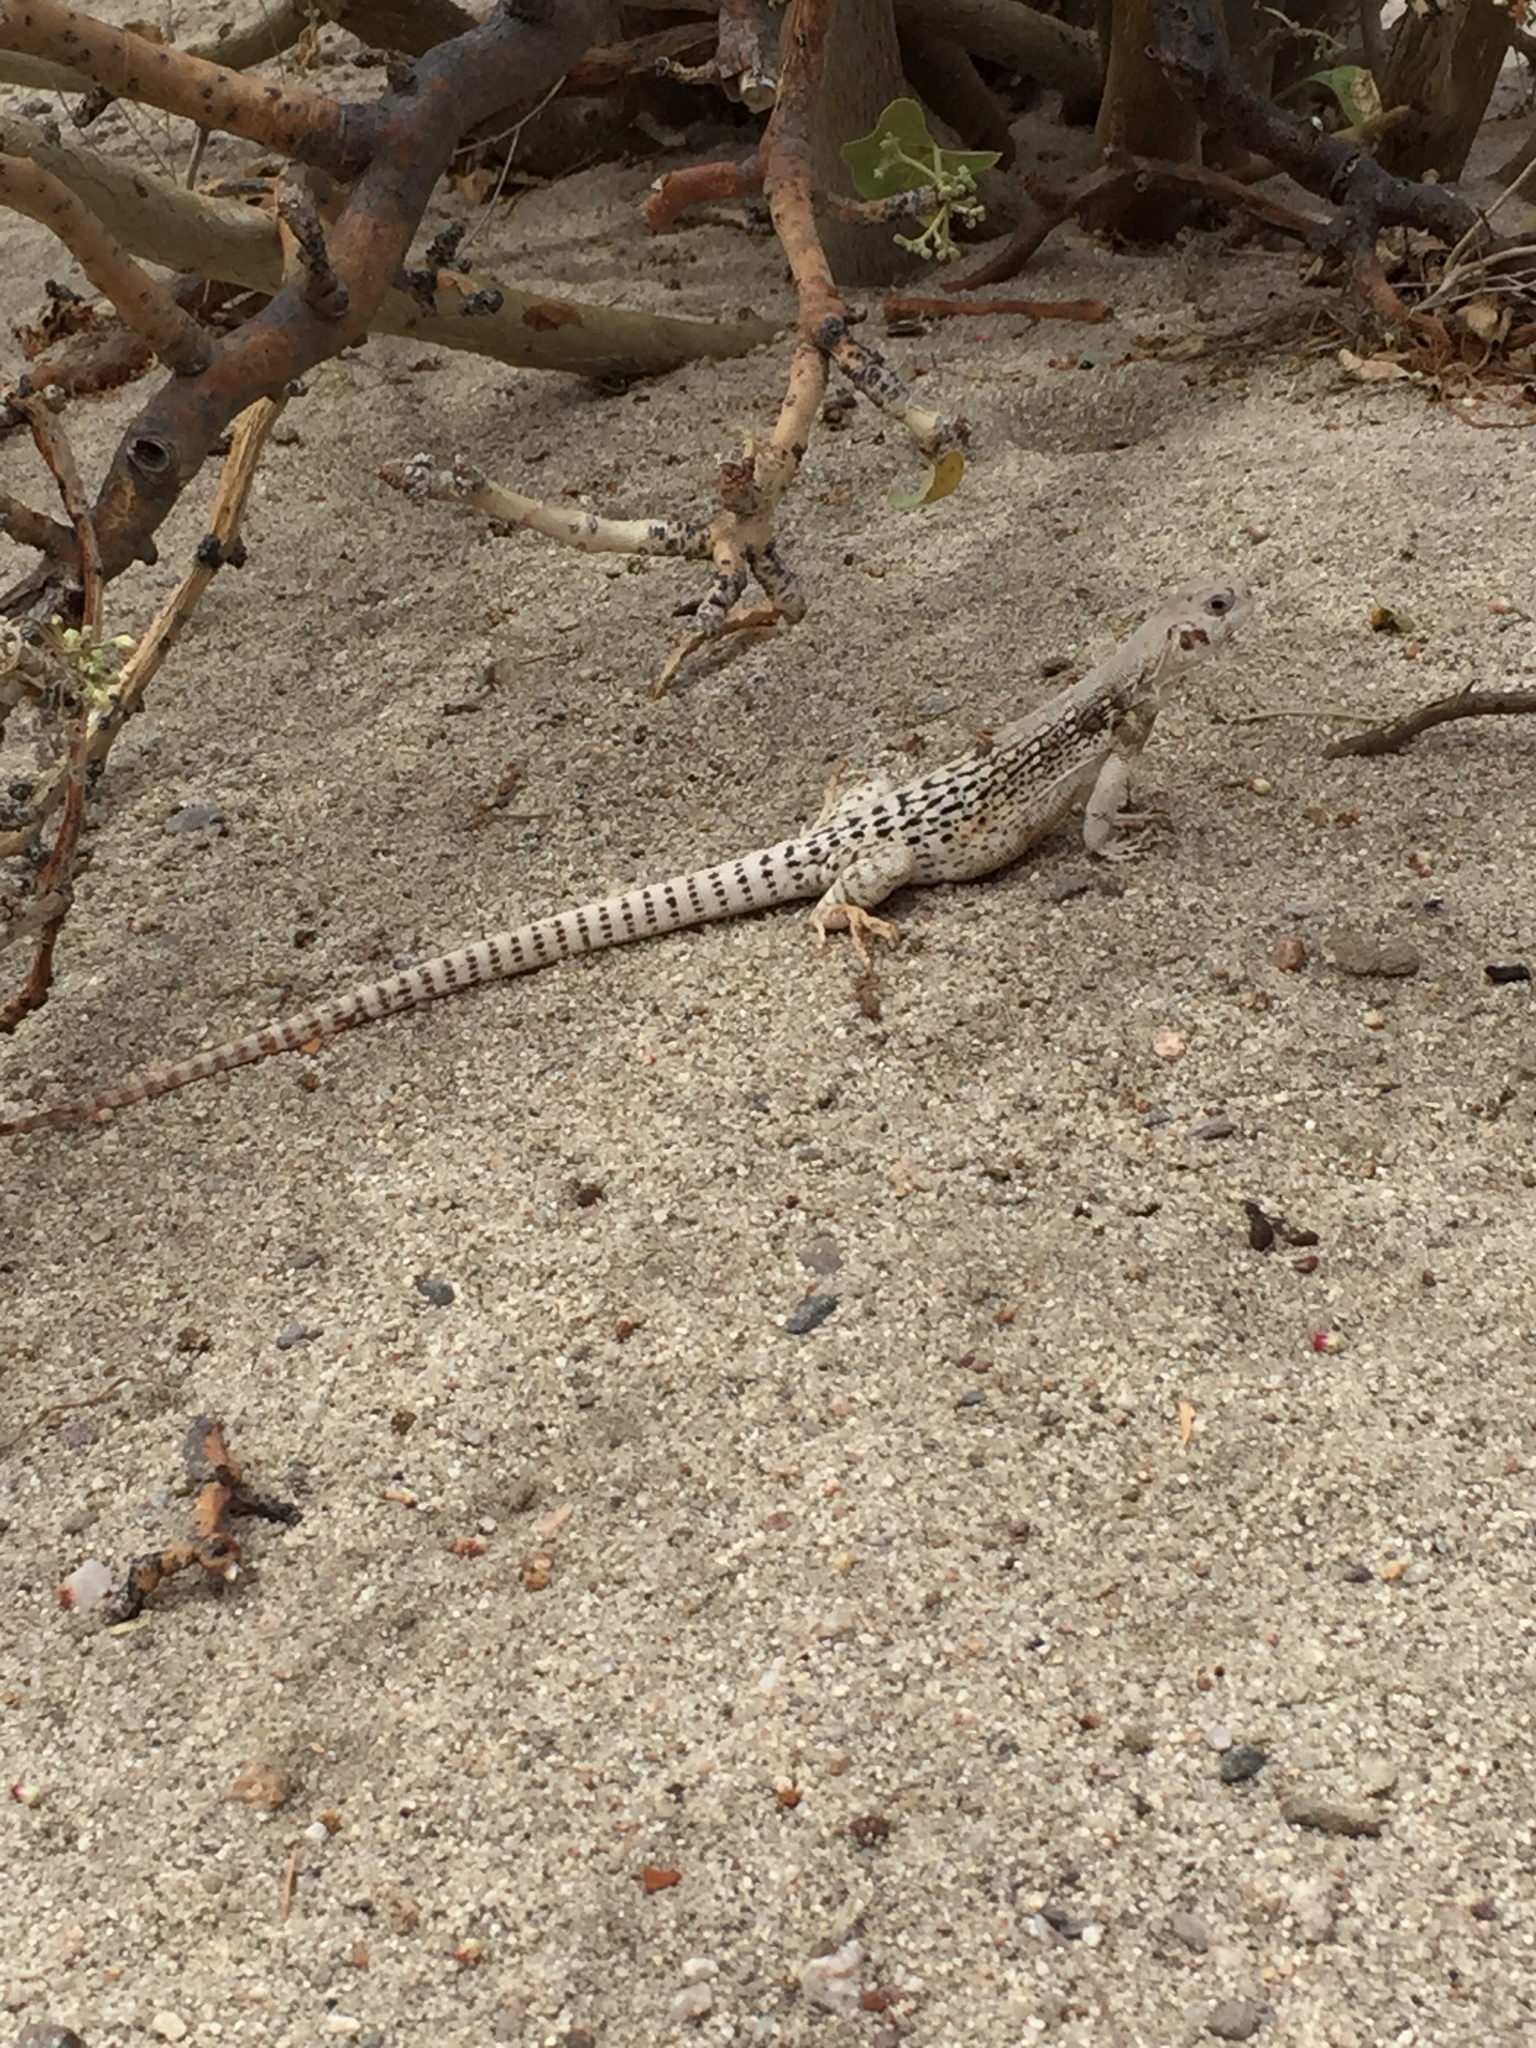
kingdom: Animalia
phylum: Chordata
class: Squamata
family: Iguanidae
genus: Dipsosaurus
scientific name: Dipsosaurus dorsalis
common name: Desert iguana
